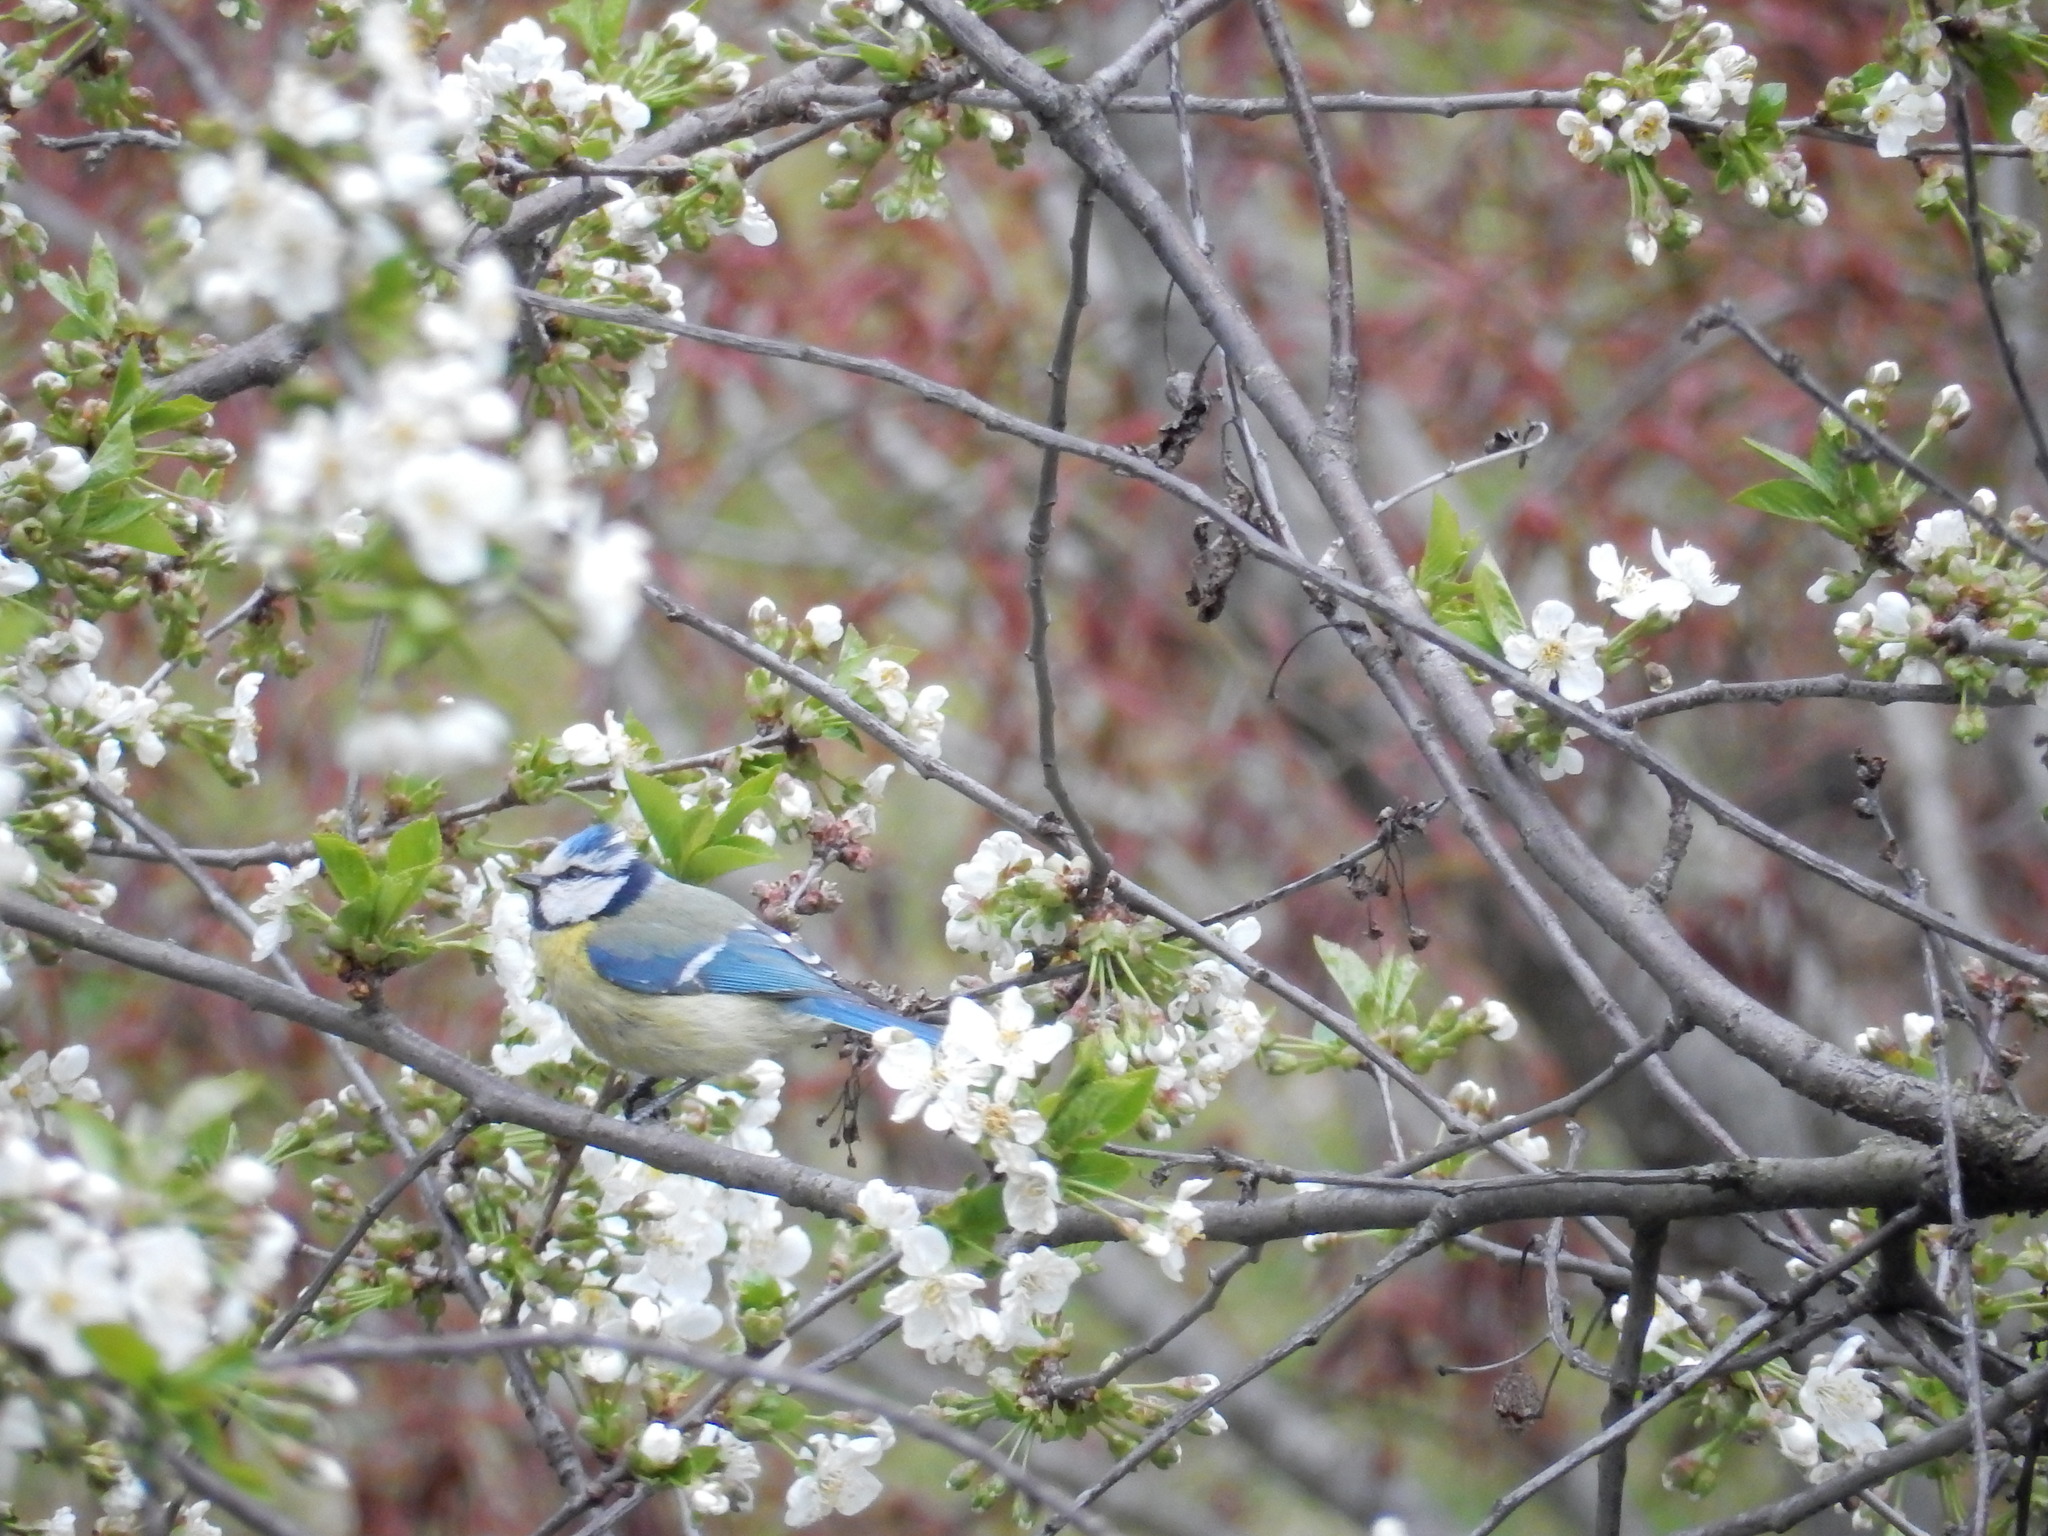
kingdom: Animalia
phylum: Chordata
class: Aves
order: Passeriformes
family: Paridae
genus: Cyanistes
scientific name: Cyanistes caeruleus
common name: Eurasian blue tit
